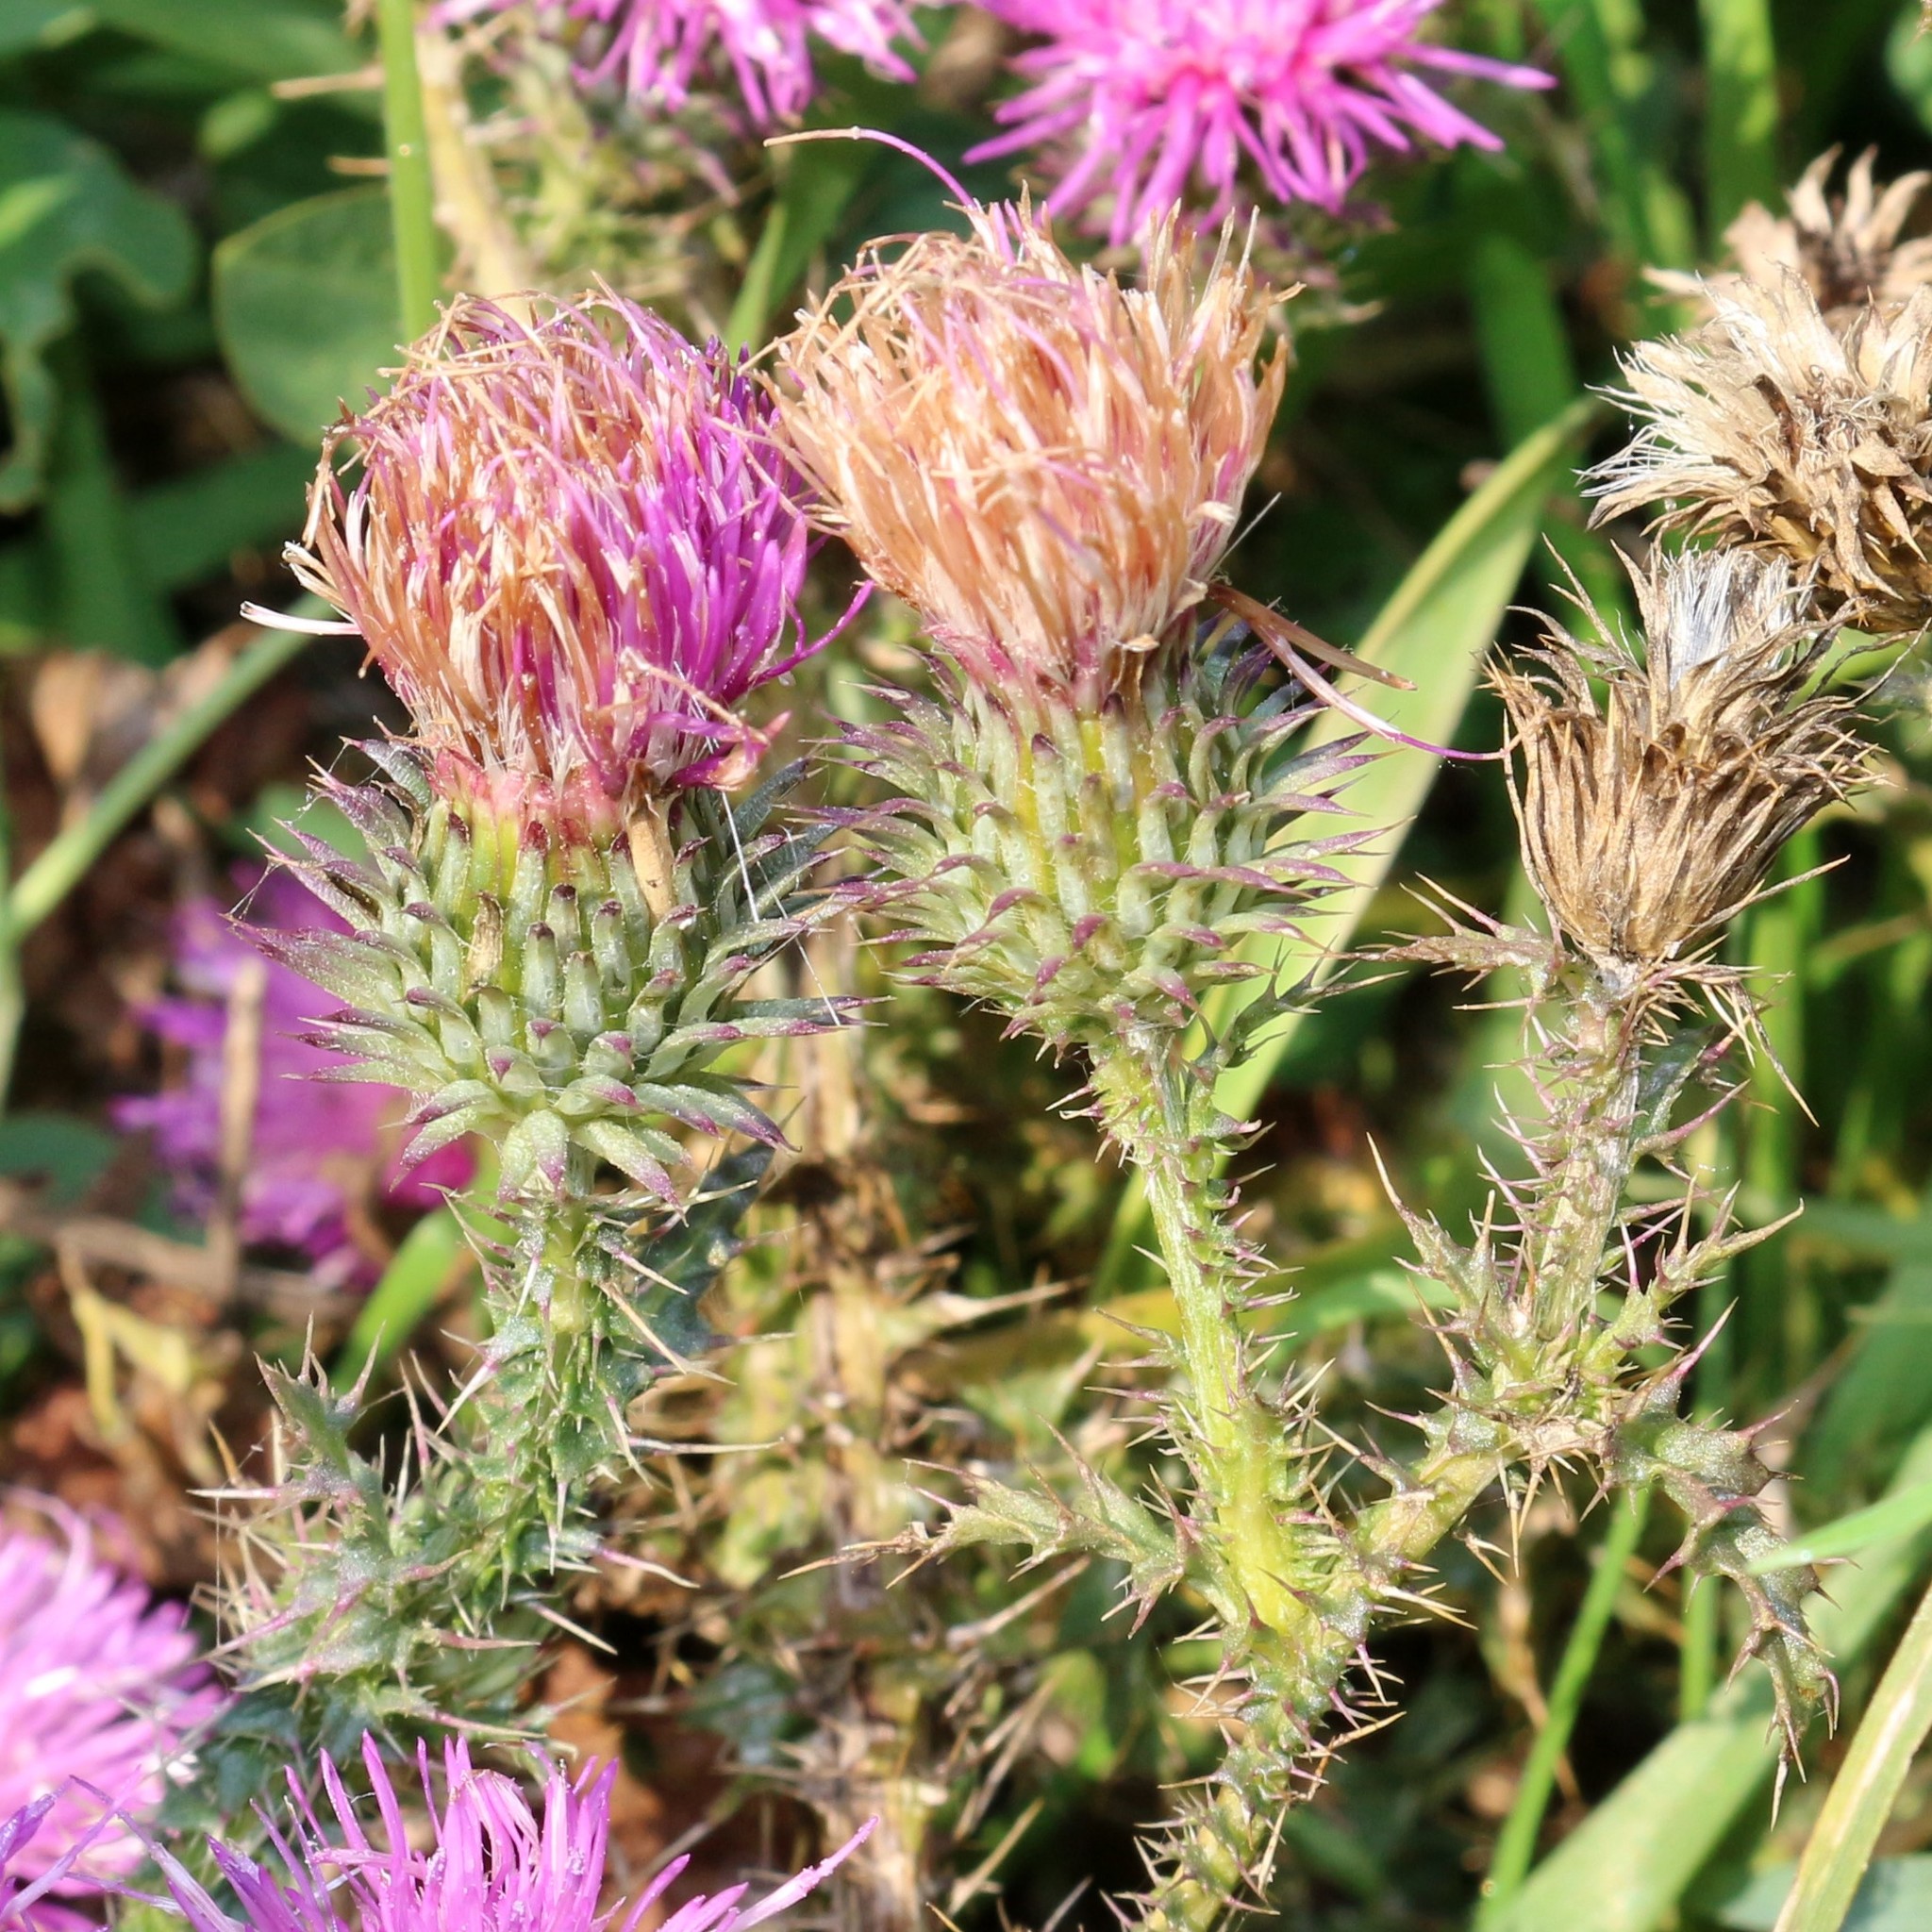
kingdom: Plantae
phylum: Tracheophyta
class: Magnoliopsida
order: Asterales
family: Asteraceae
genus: Carduus
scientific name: Carduus acanthoides
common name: Plumeless thistle
